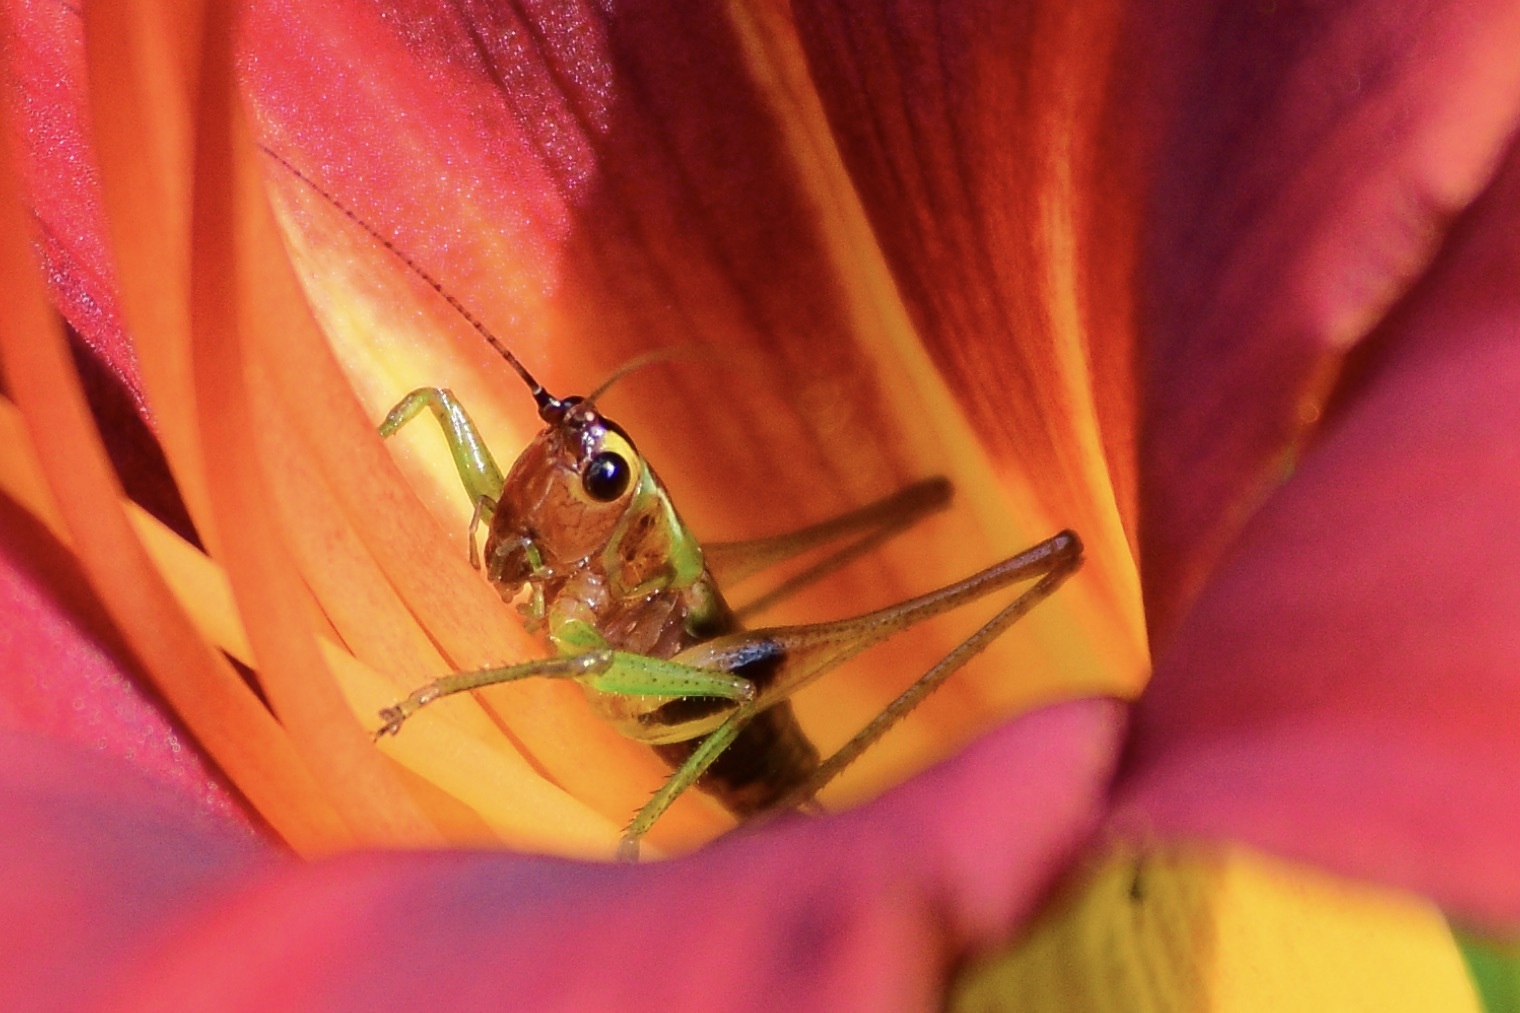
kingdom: Animalia
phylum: Arthropoda
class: Insecta
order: Orthoptera
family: Tettigoniidae
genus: Conocephalus
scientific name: Conocephalus nigropleurum
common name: Black-sided meadow katydid
